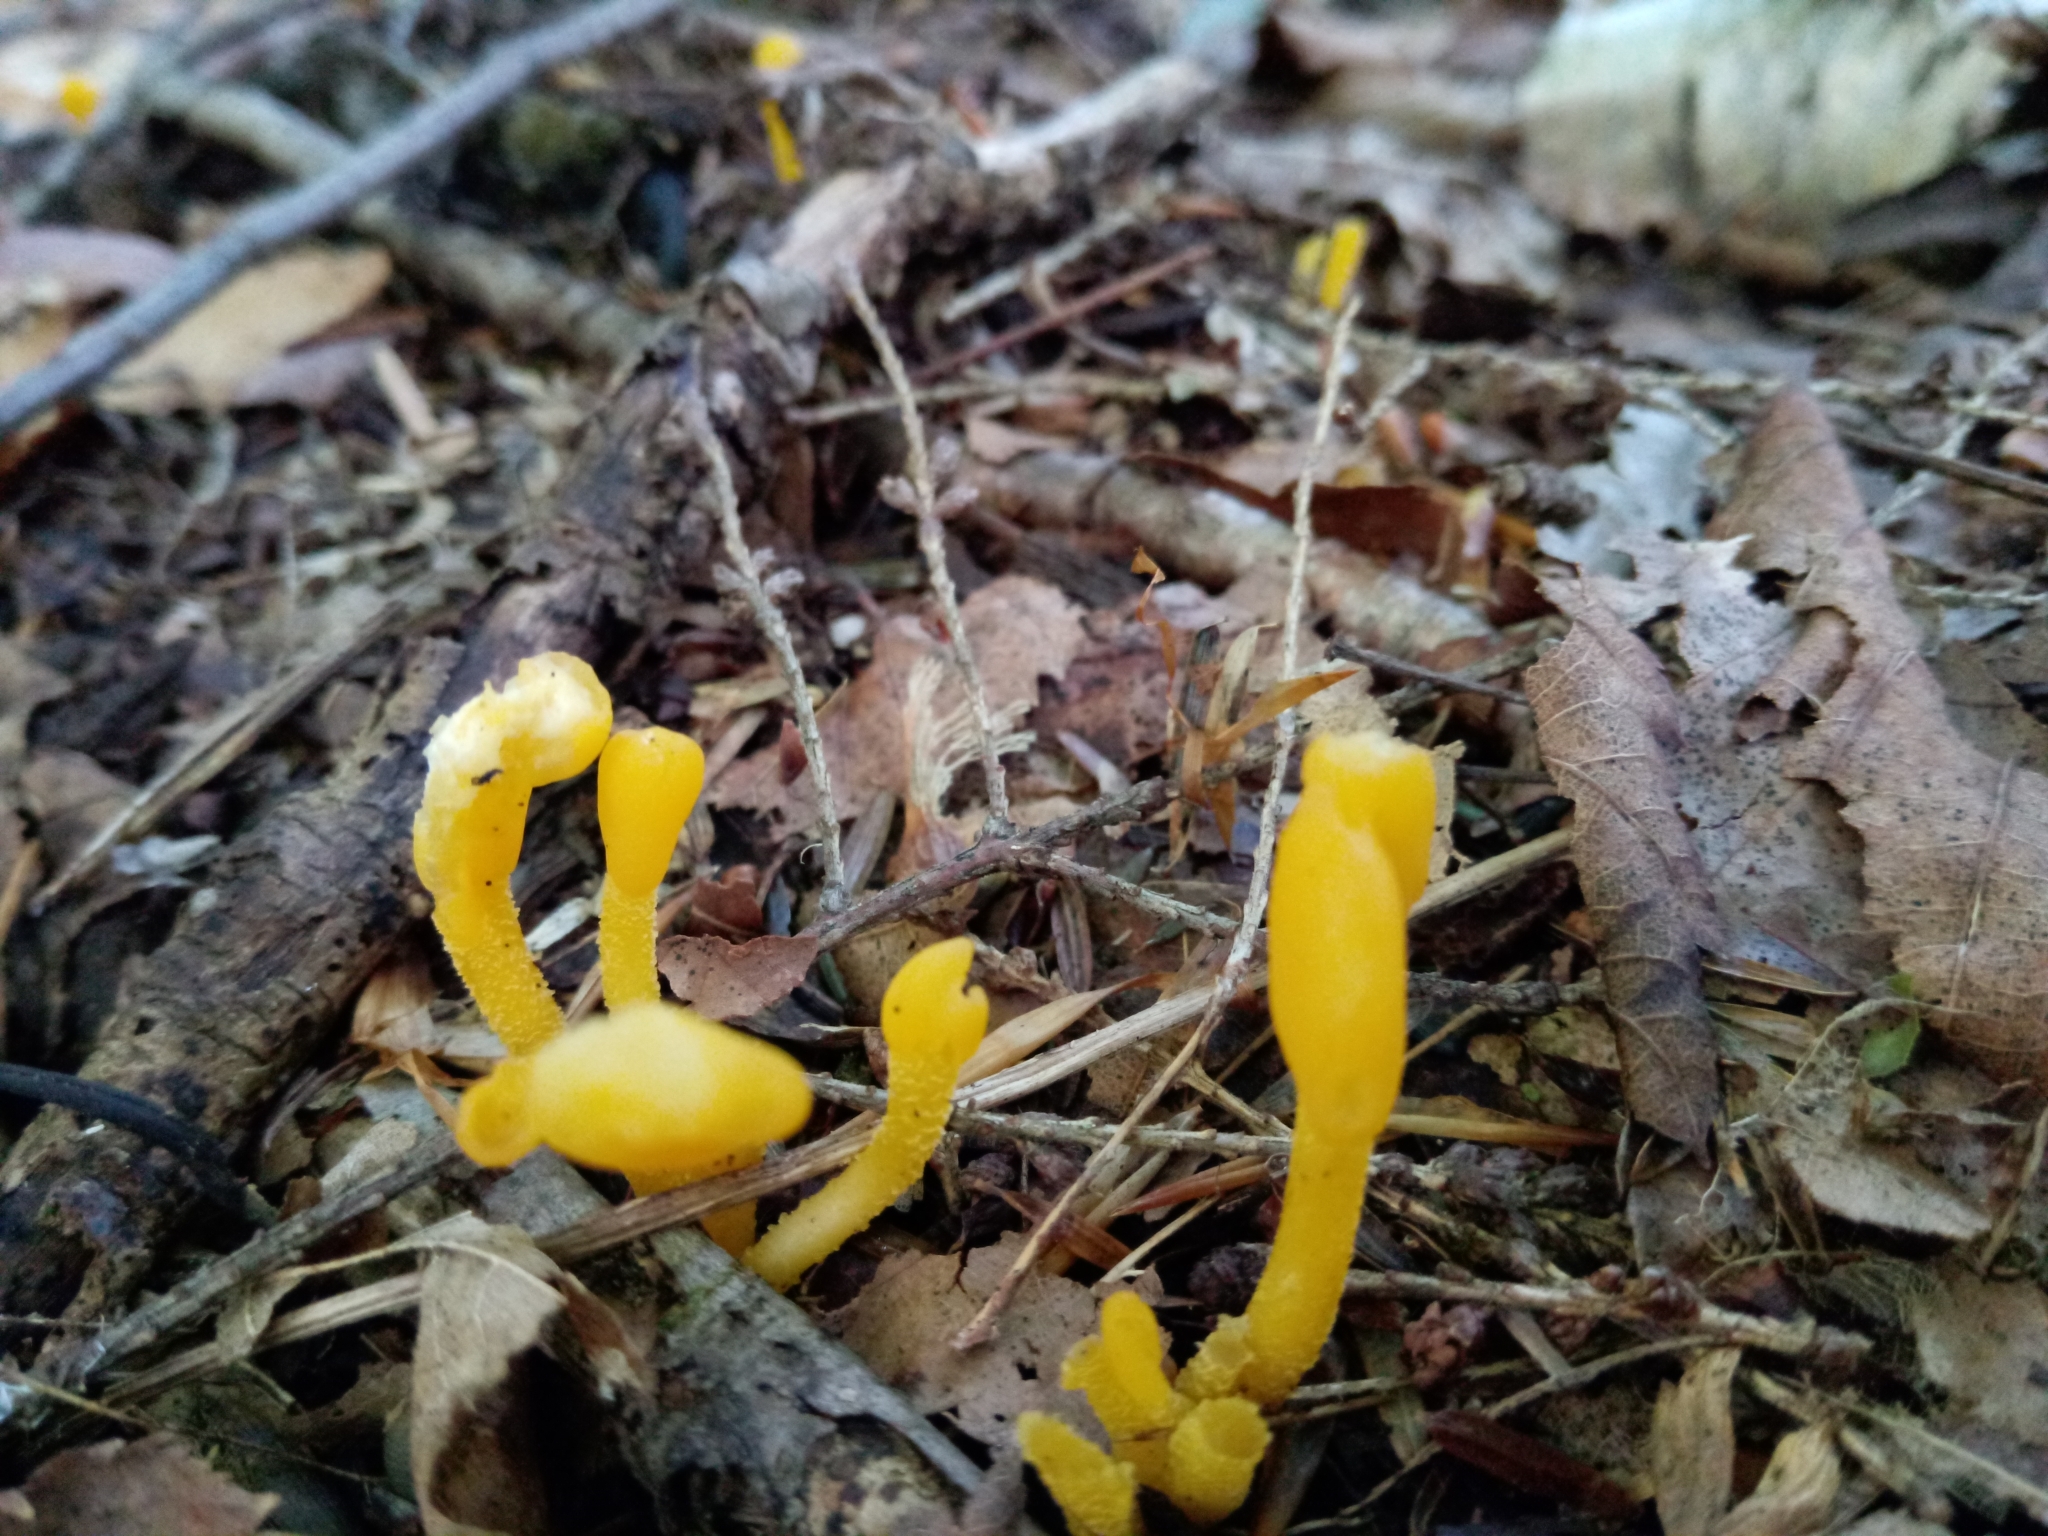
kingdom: Fungi
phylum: Ascomycota
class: Leotiomycetes
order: Leotiales
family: Leotiaceae
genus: Microglossum
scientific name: Microglossum rufum
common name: Orange earthtongue
